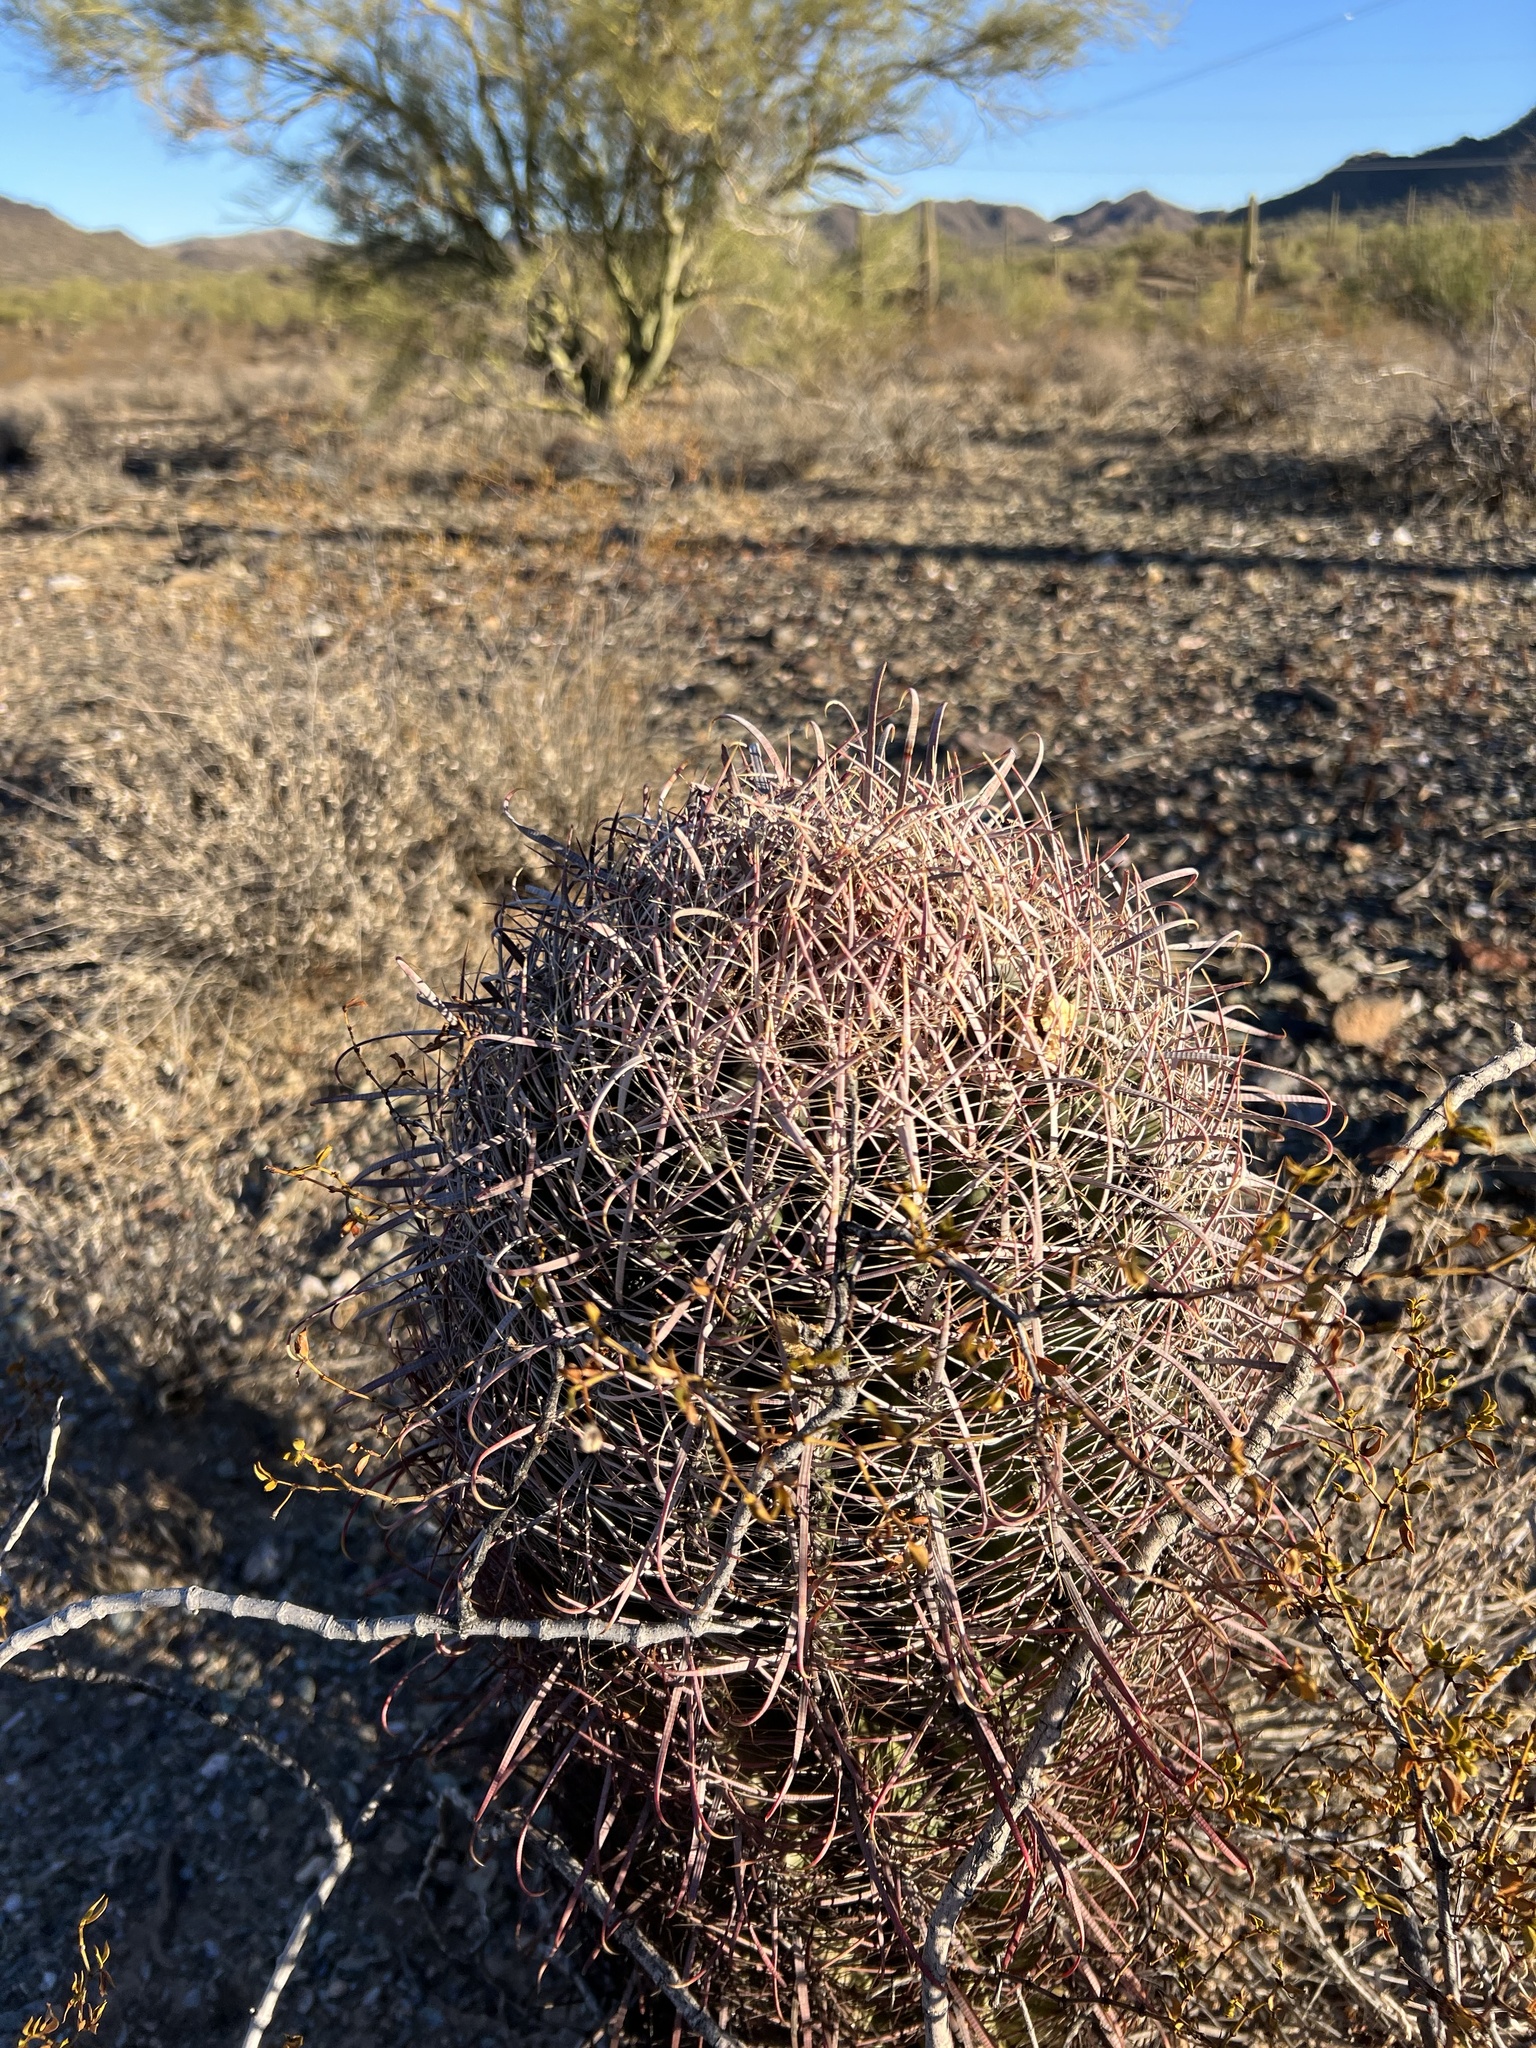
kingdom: Plantae
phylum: Tracheophyta
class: Magnoliopsida
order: Caryophyllales
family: Cactaceae
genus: Ferocactus
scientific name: Ferocactus cylindraceus
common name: California barrel cactus
